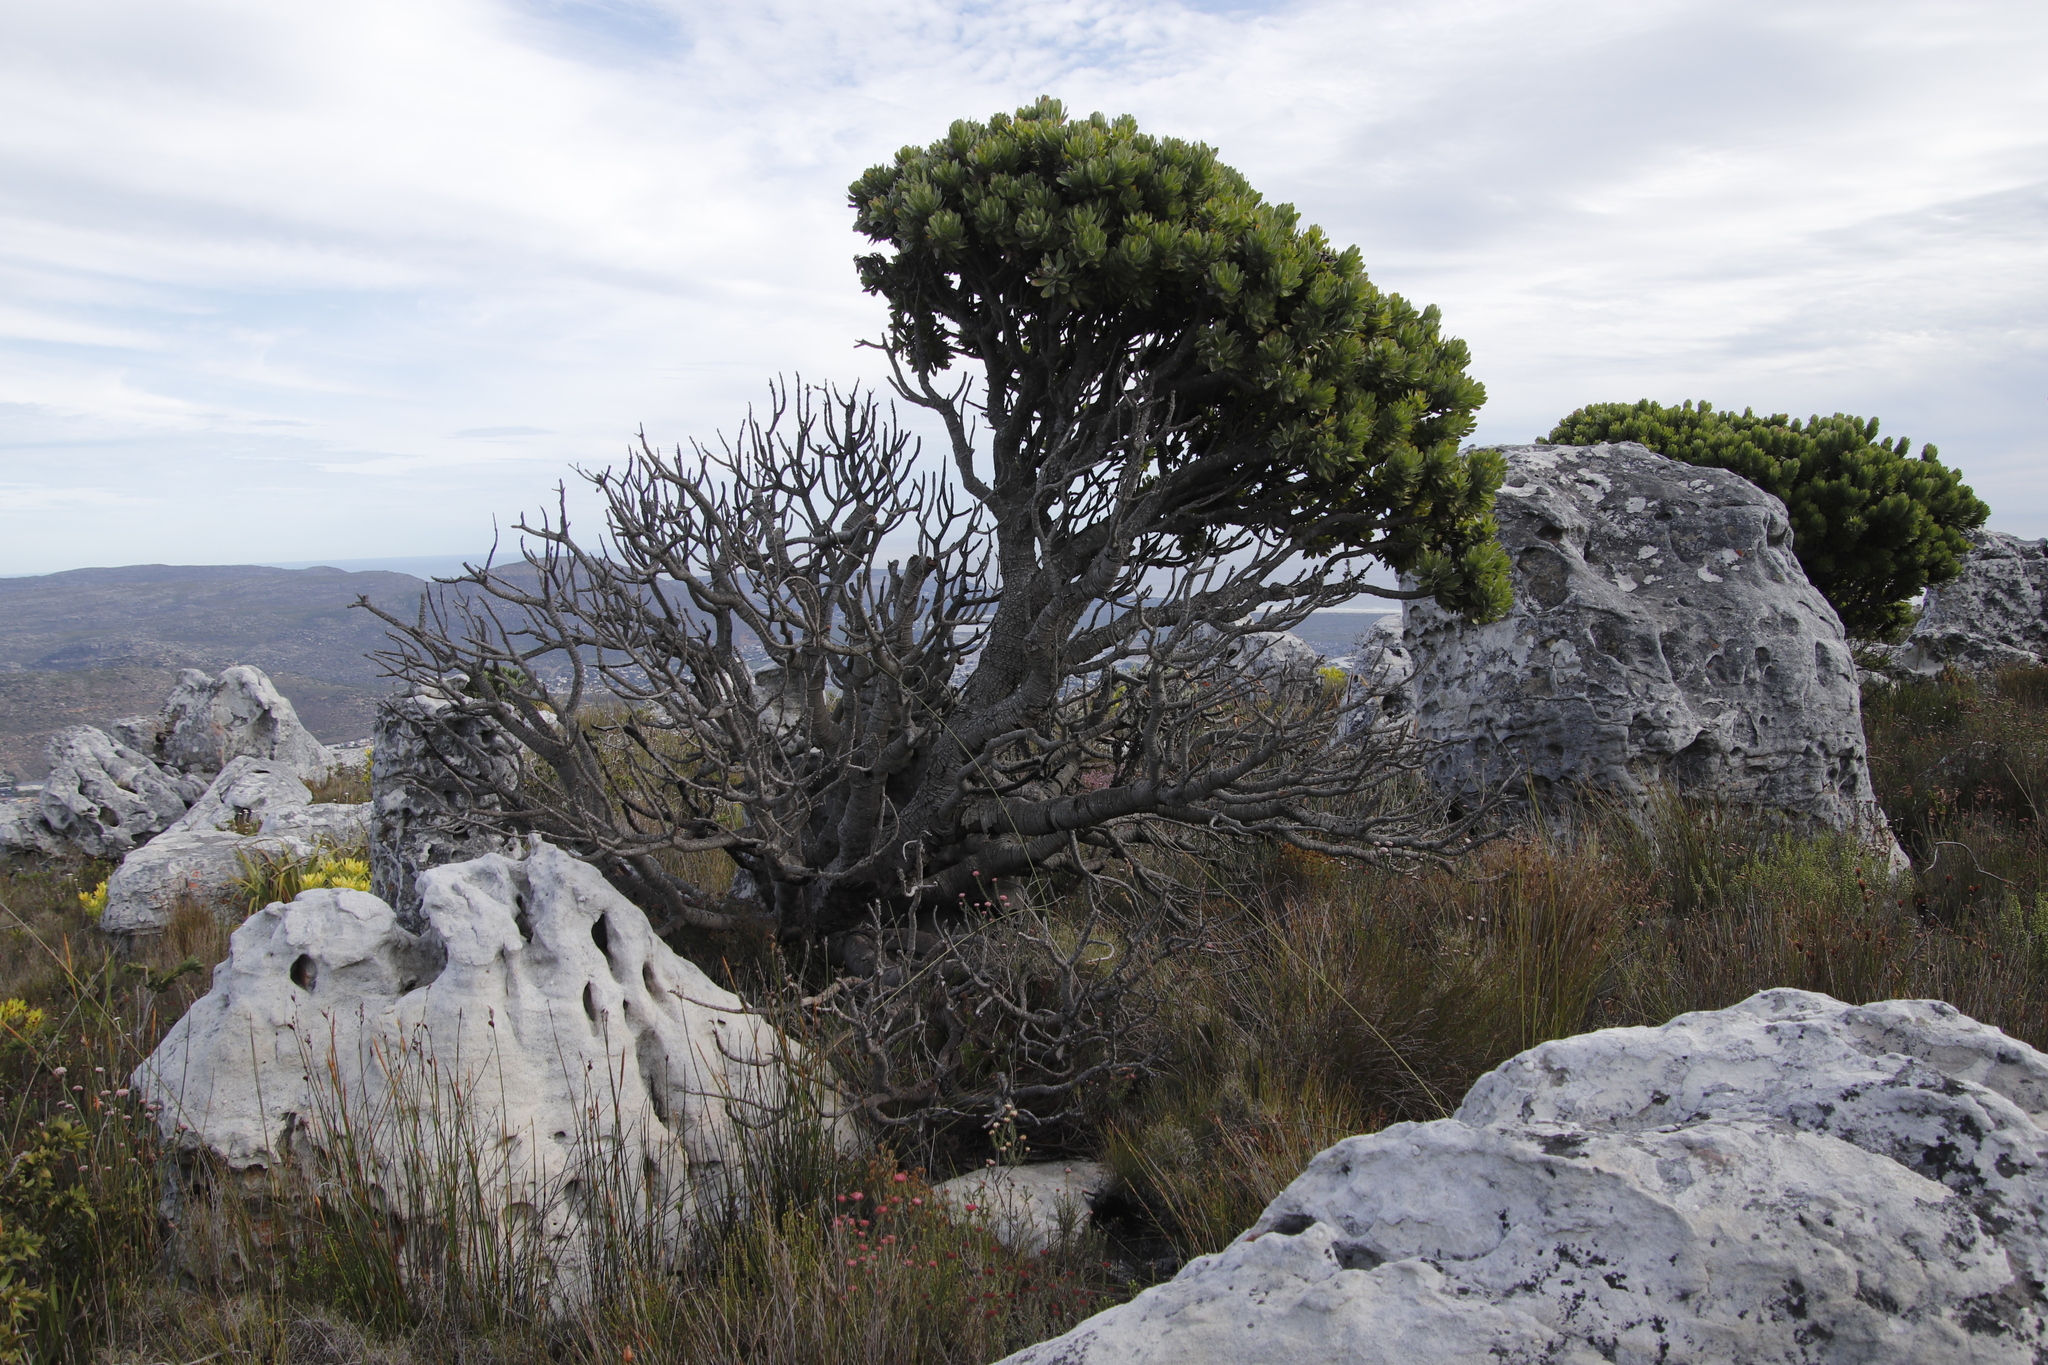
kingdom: Plantae
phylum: Tracheophyta
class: Magnoliopsida
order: Proteales
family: Proteaceae
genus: Mimetes
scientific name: Mimetes fimbriifolius
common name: Fringed bottlebrush
